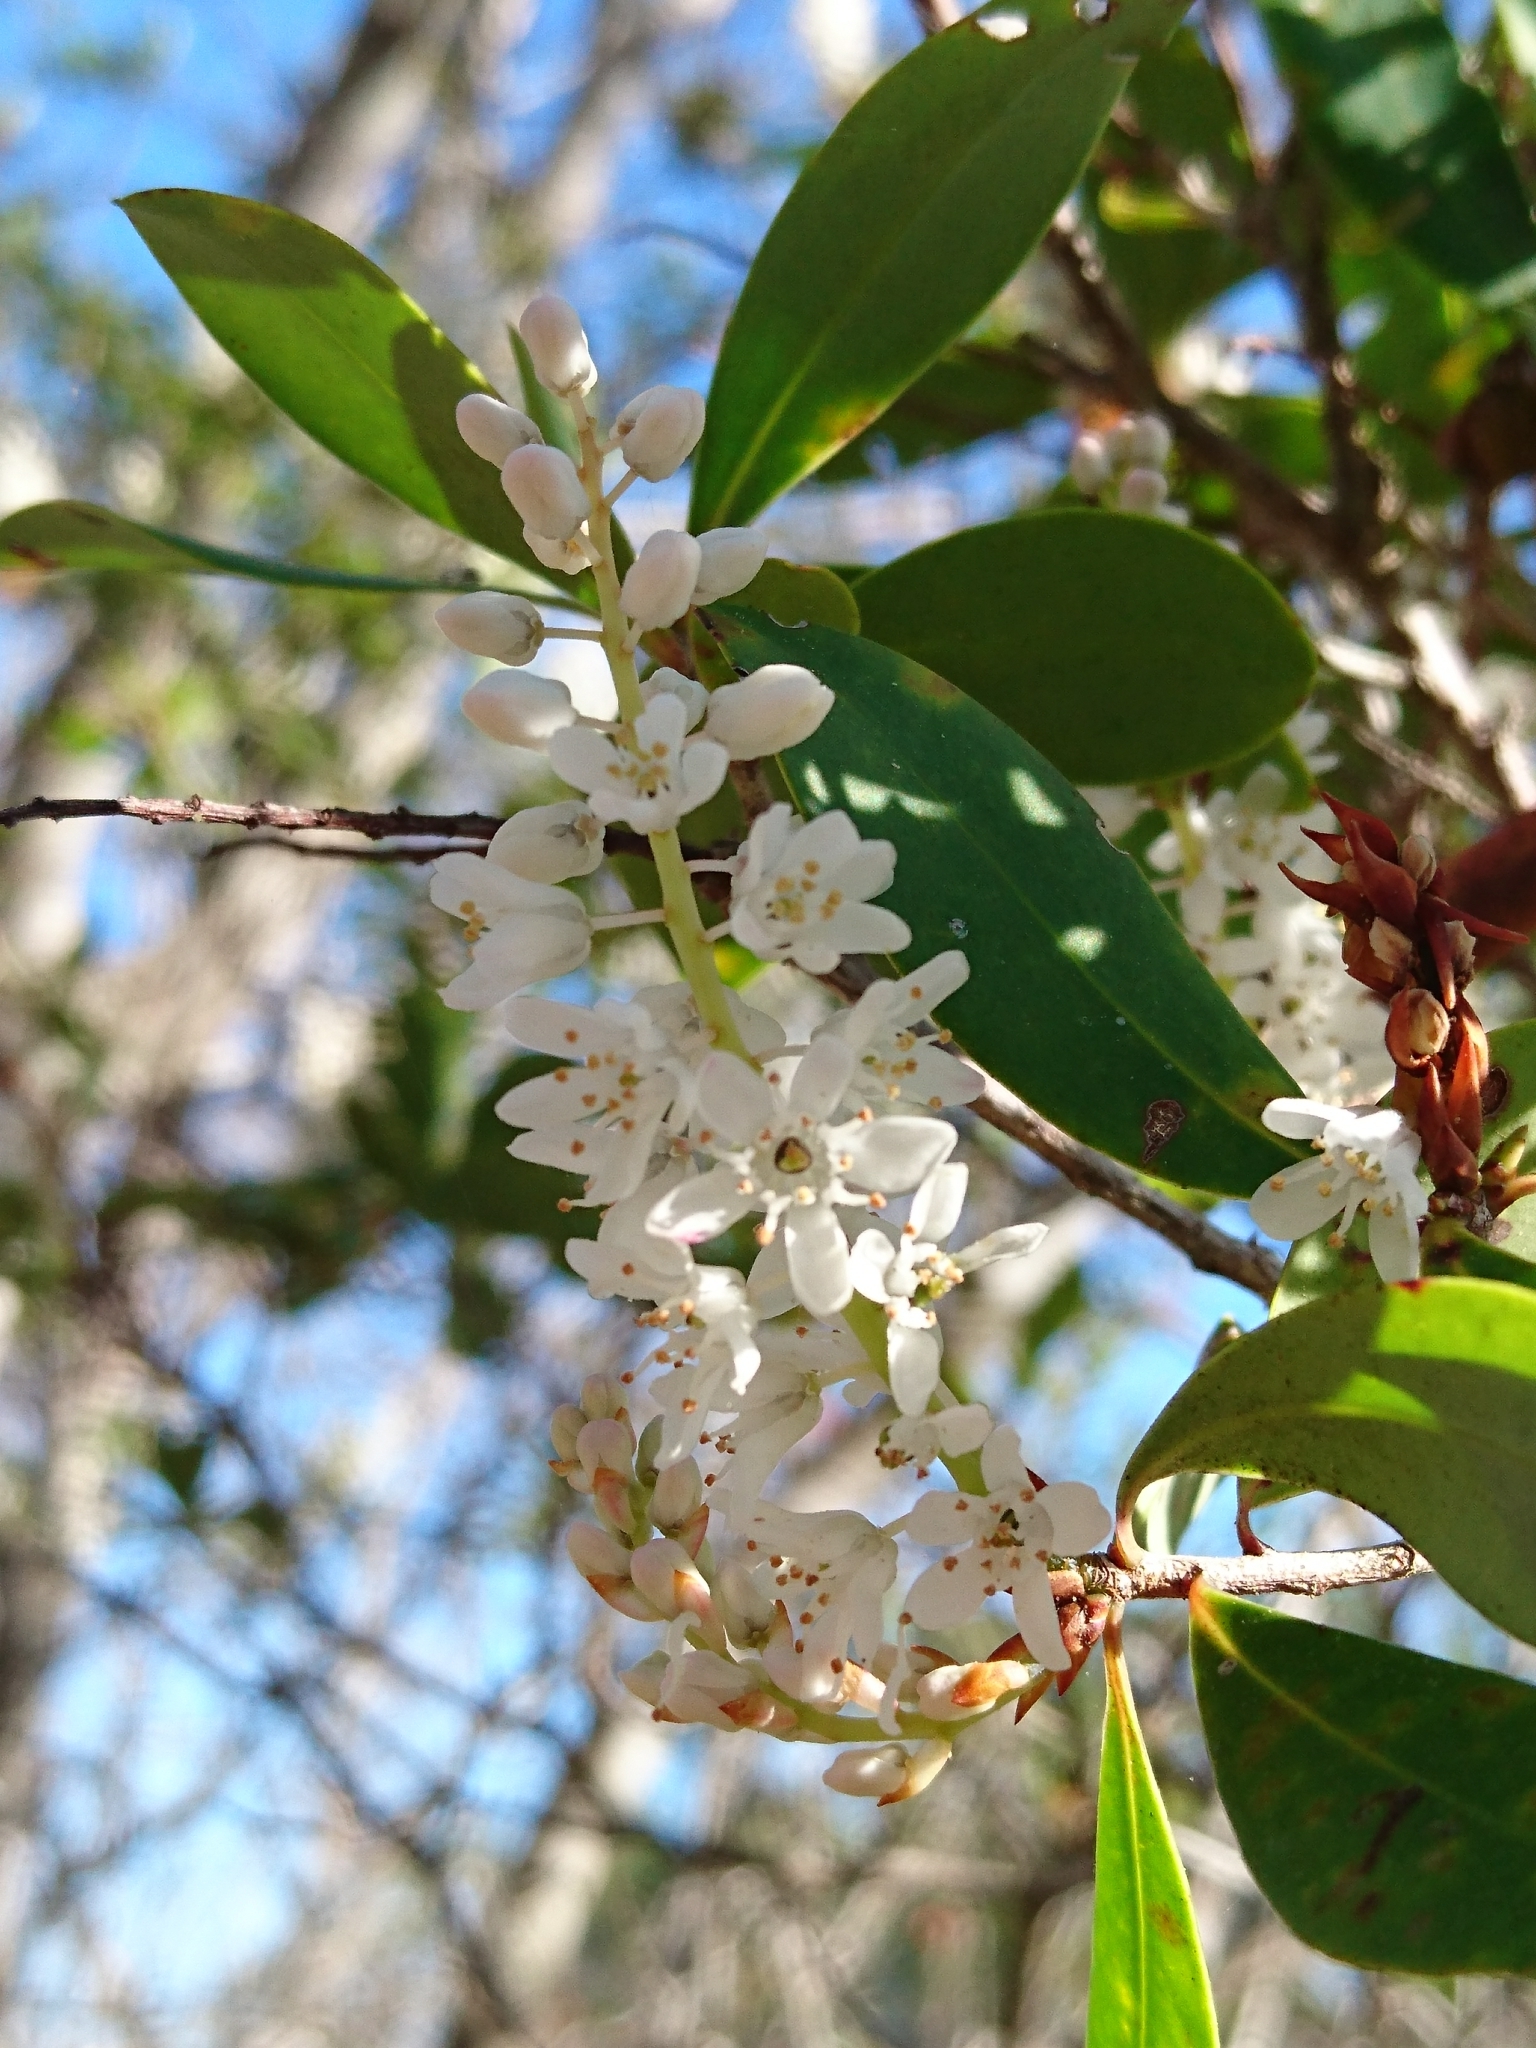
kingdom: Plantae
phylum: Tracheophyta
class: Magnoliopsida
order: Ericales
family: Cyrillaceae
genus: Cliftonia
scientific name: Cliftonia monophylla
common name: Titi
